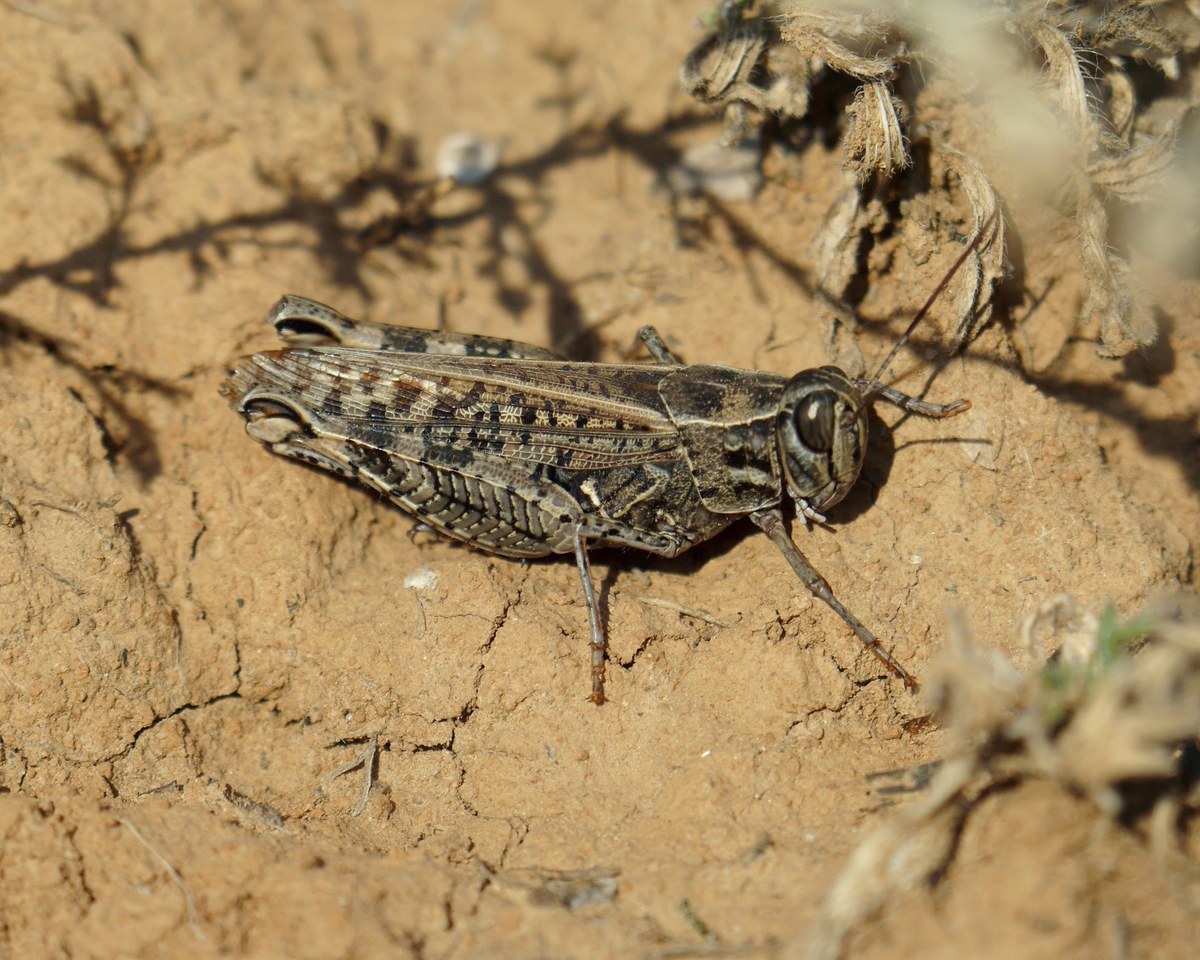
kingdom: Animalia
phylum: Arthropoda
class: Insecta
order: Orthoptera
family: Acrididae
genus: Calliptamus
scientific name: Calliptamus italicus
